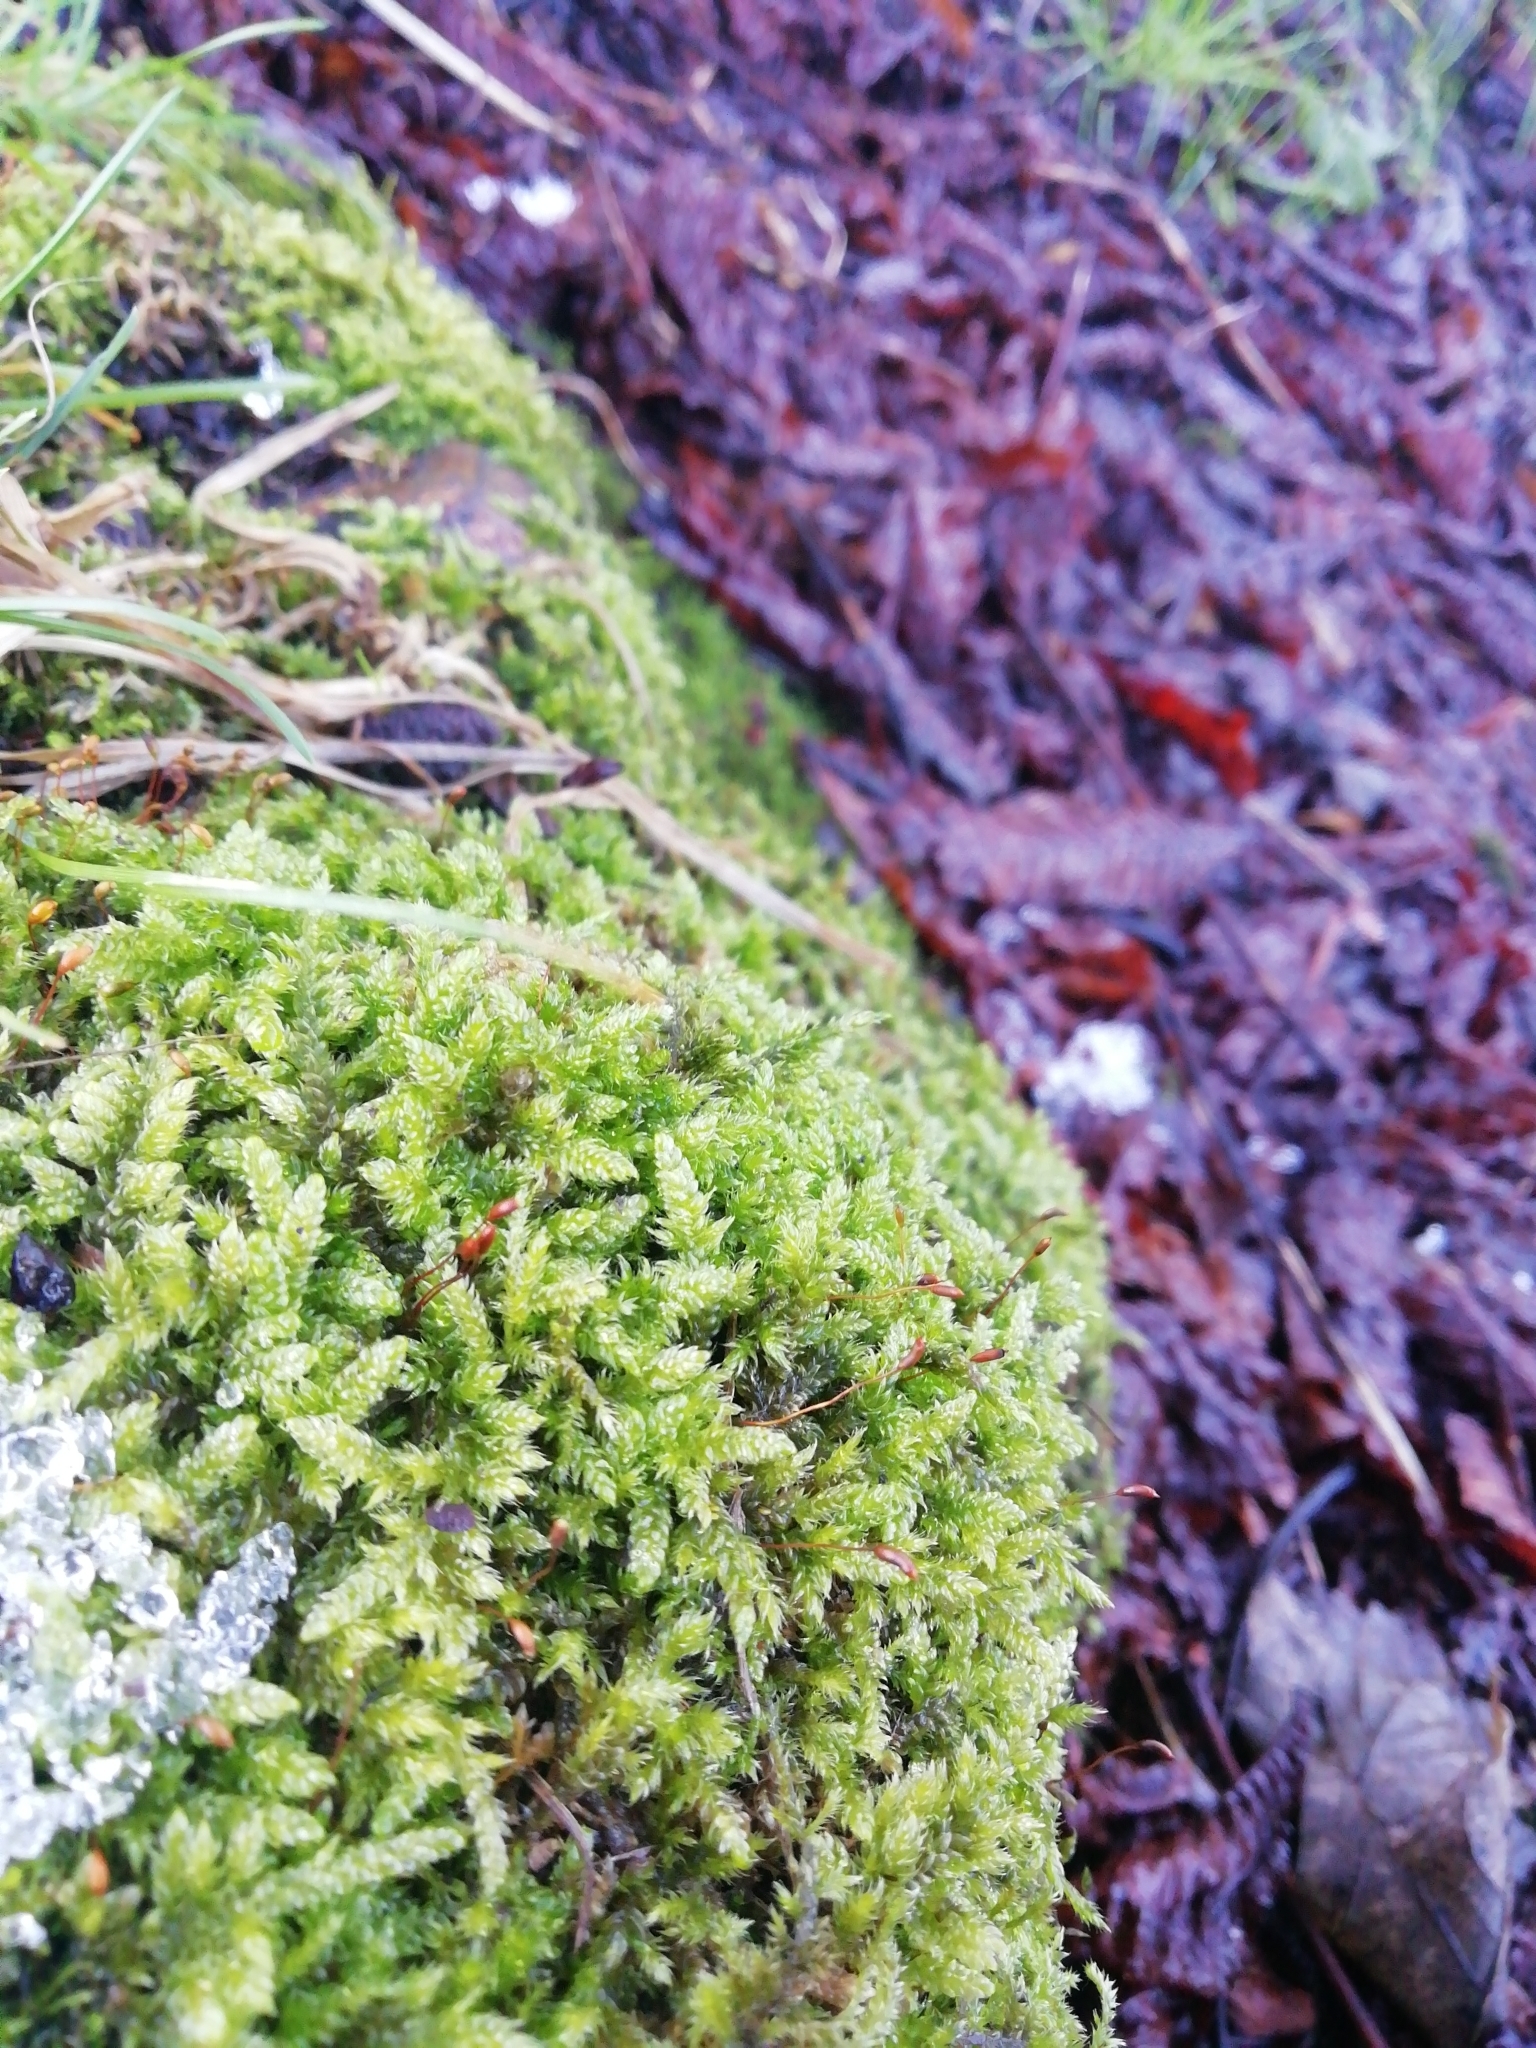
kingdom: Plantae
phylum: Bryophyta
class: Bryopsida
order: Hypnales
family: Hypnaceae
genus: Hypnum
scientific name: Hypnum cupressiforme
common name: Cypress-leaved plait-moss
